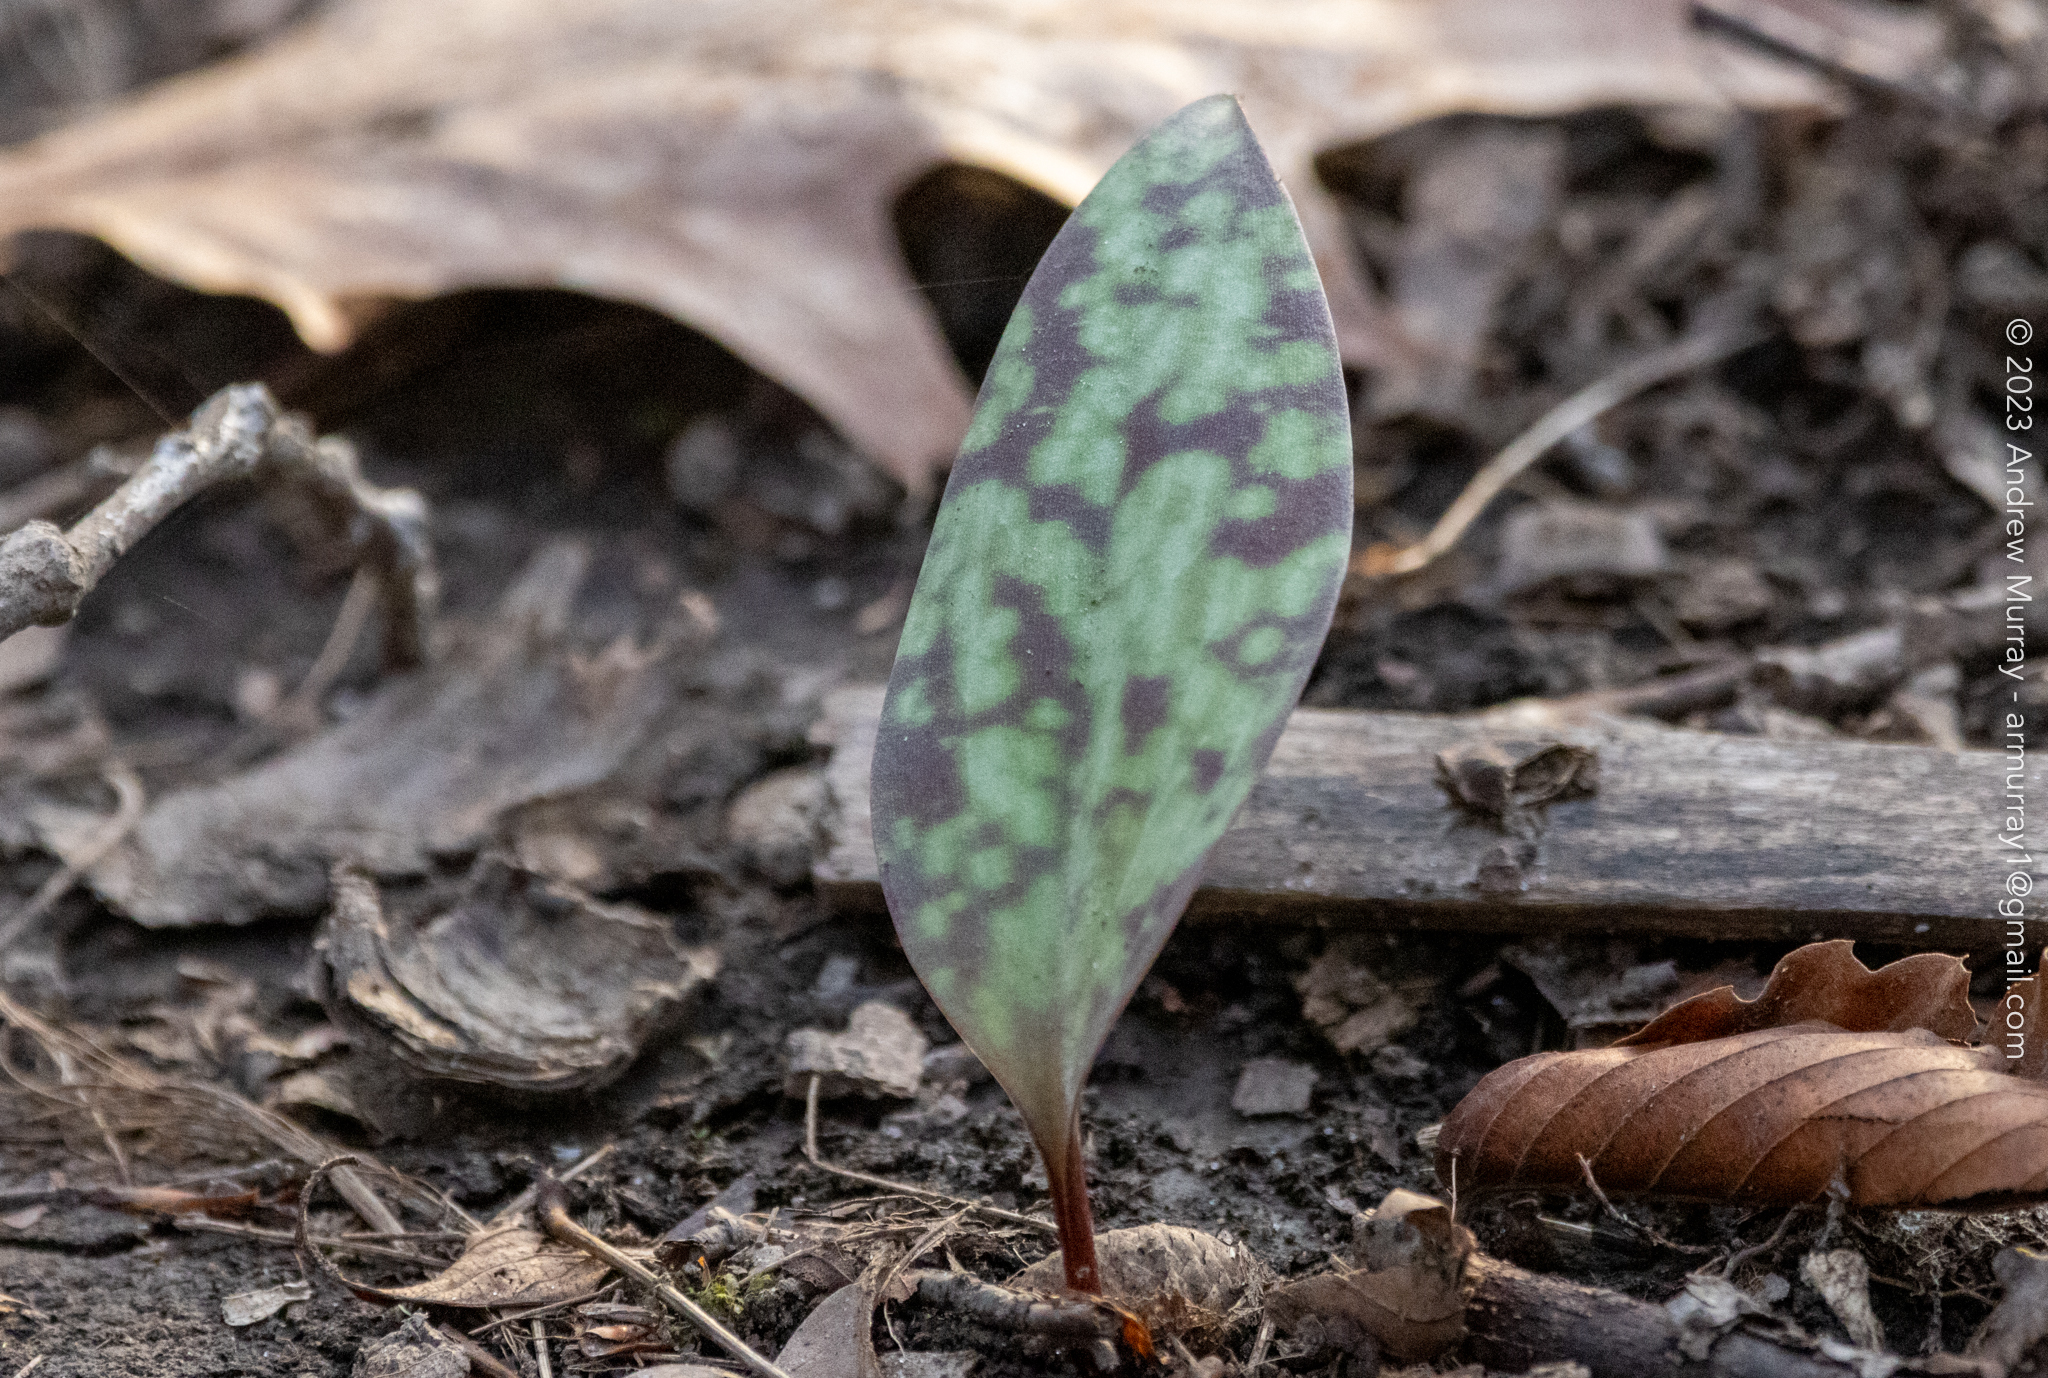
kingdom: Plantae
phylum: Tracheophyta
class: Liliopsida
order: Liliales
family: Liliaceae
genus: Erythronium
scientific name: Erythronium americanum
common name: Yellow adder's-tongue
